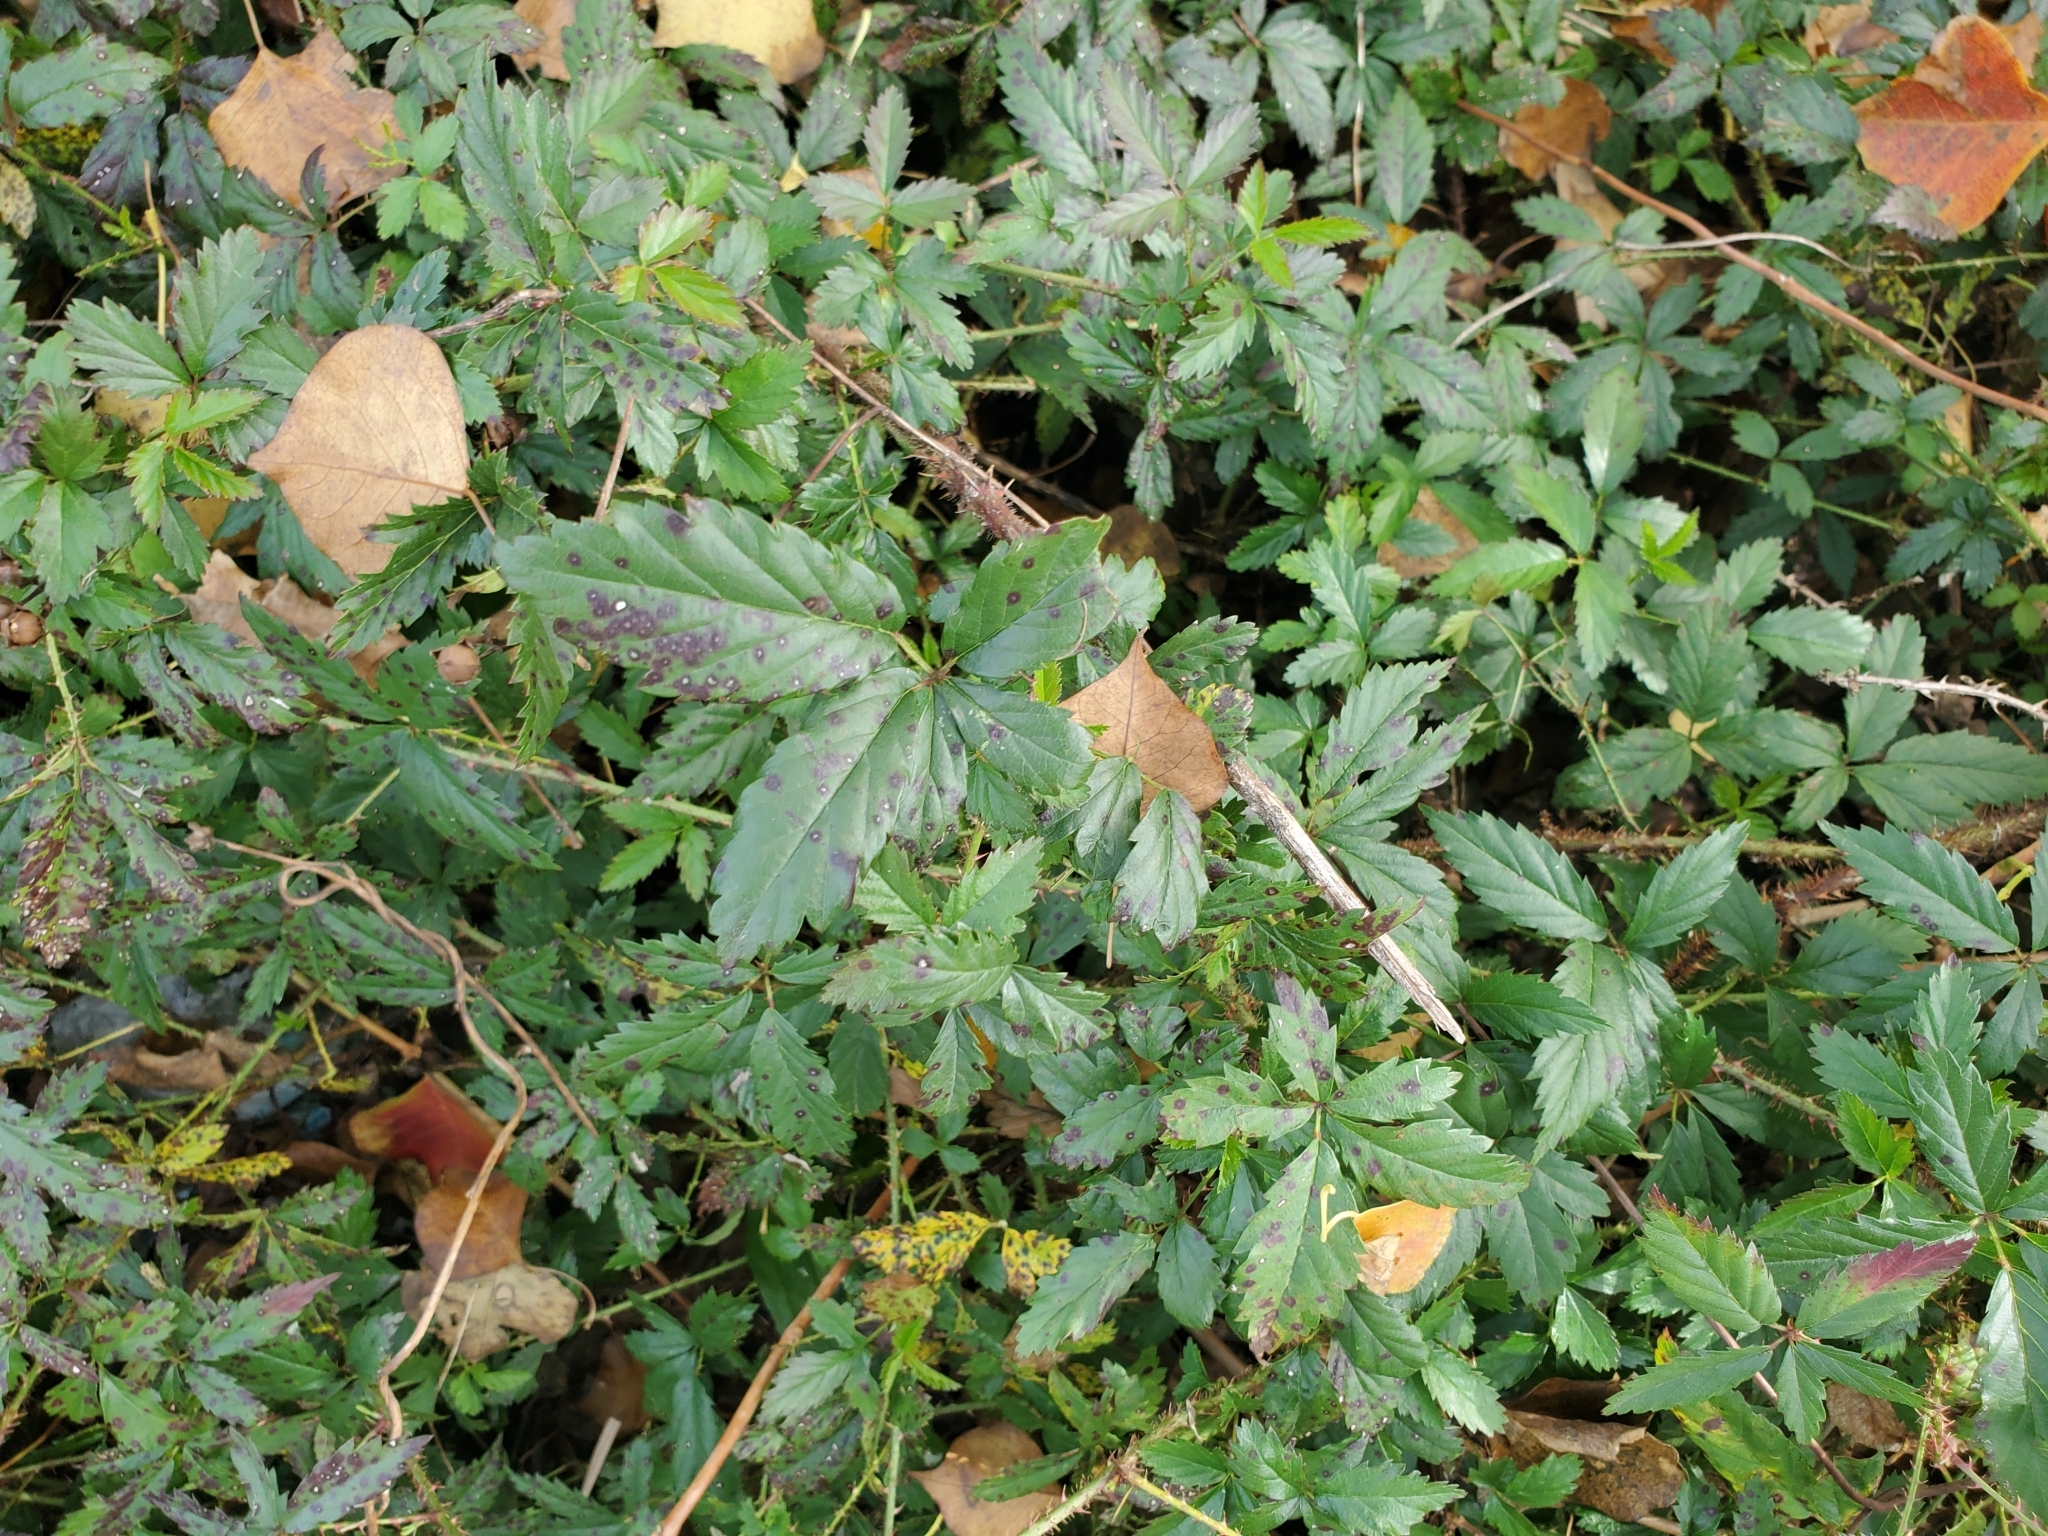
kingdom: Plantae
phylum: Tracheophyta
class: Magnoliopsida
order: Rosales
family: Rosaceae
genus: Rubus
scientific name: Rubus trivialis
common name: Southern dewberry
